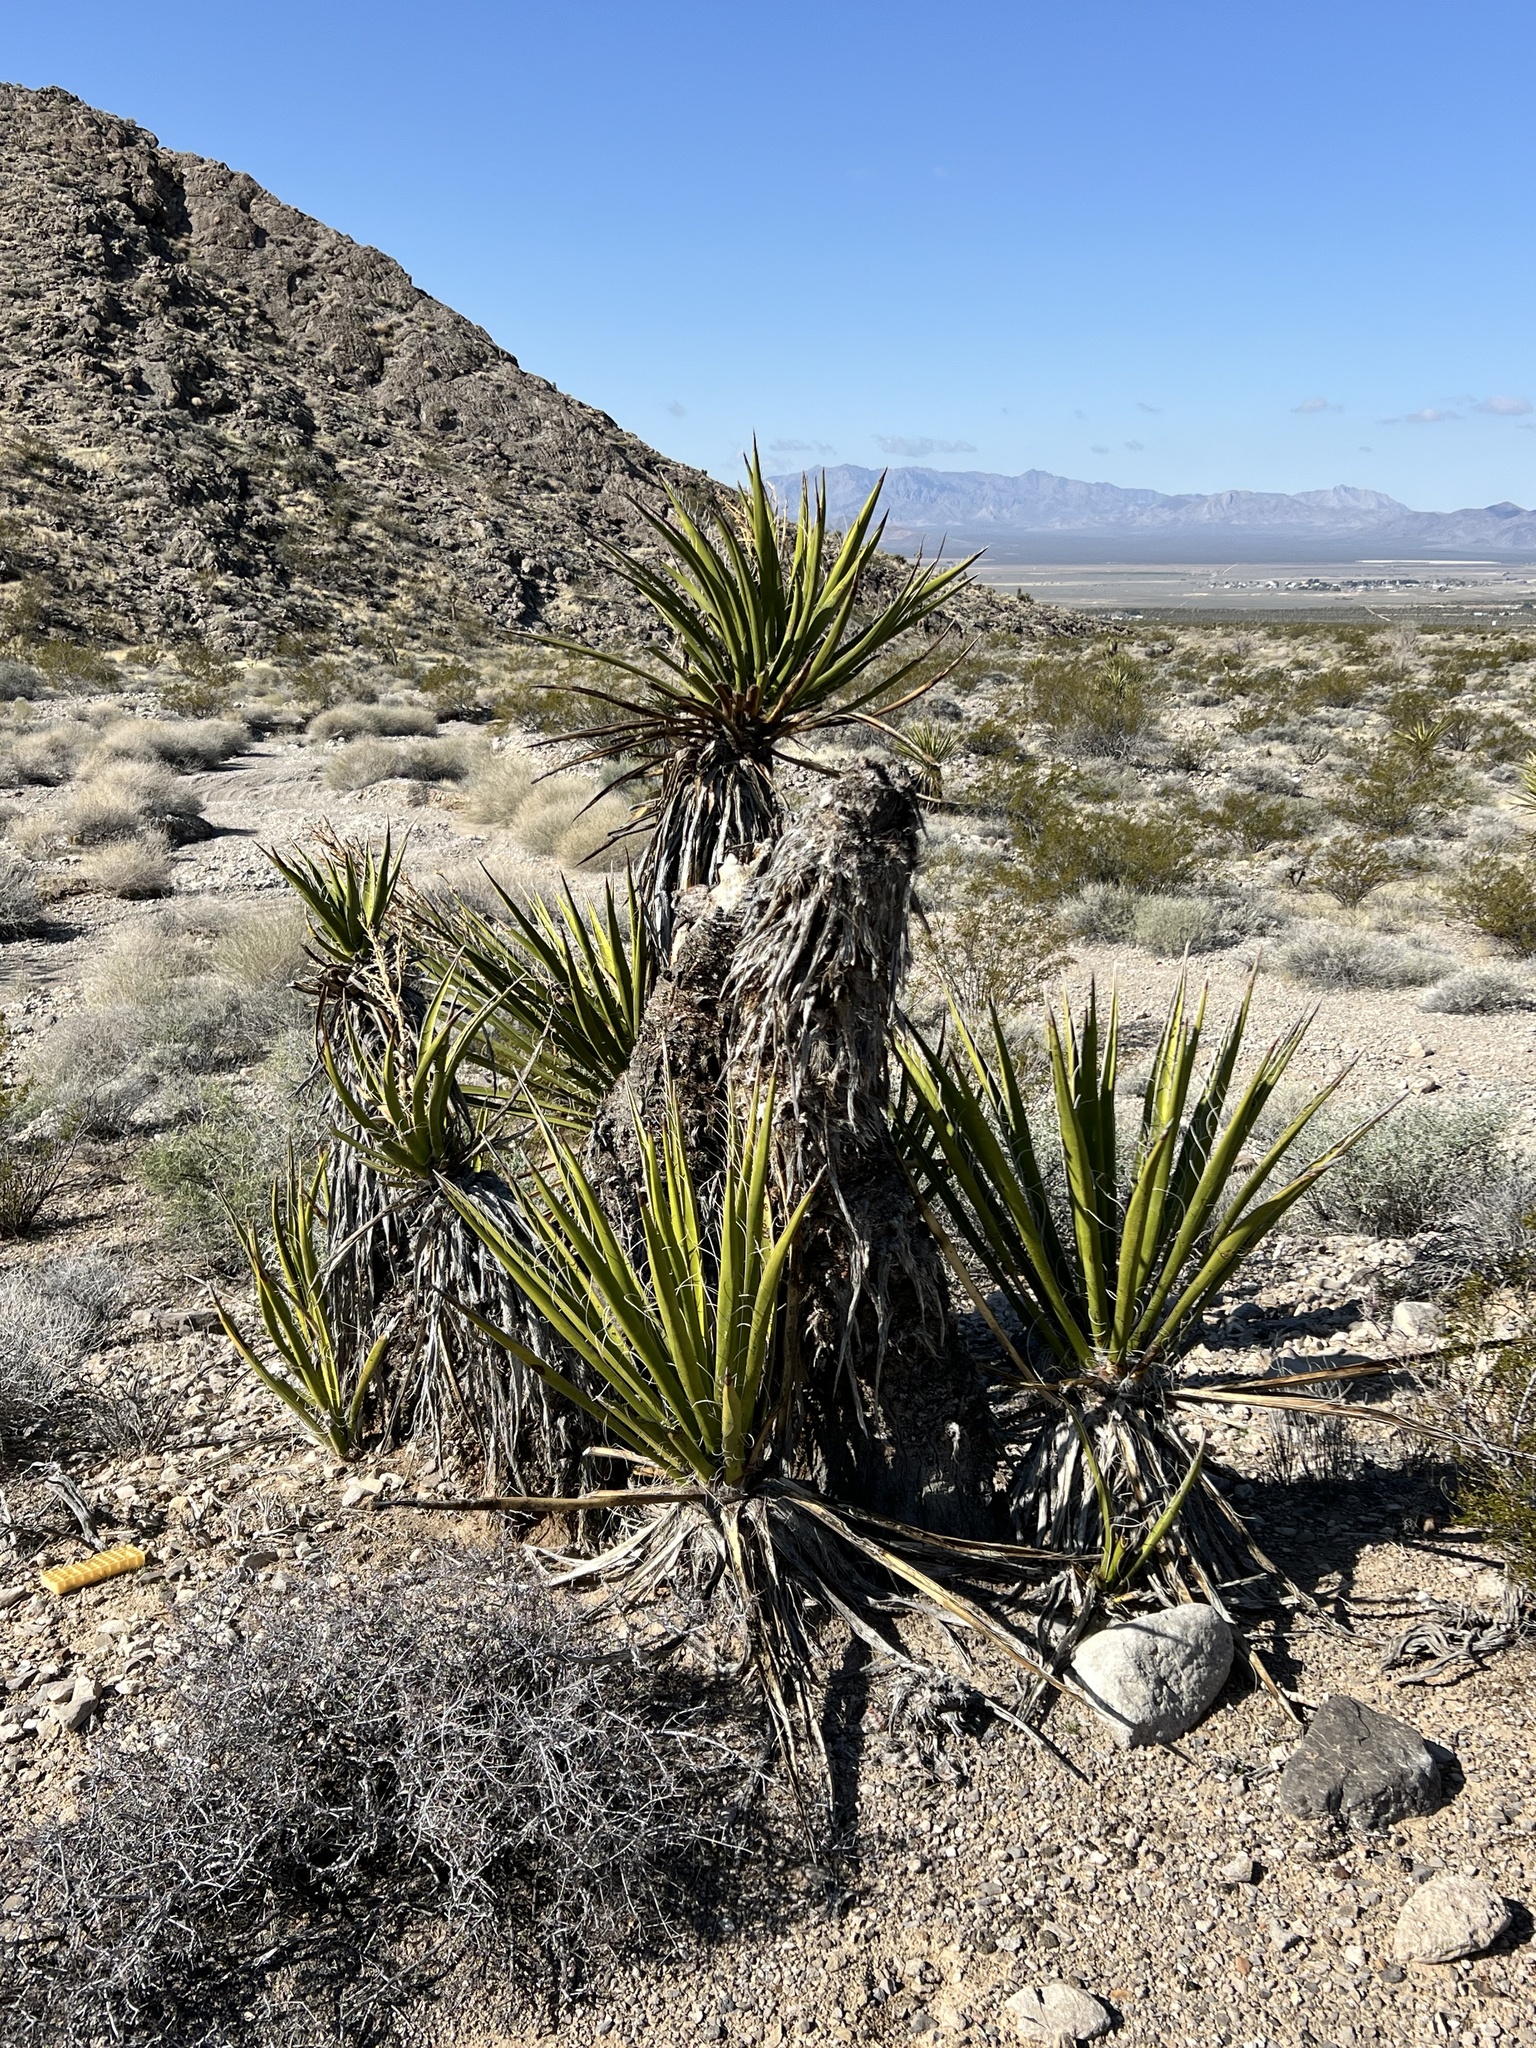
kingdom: Plantae
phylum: Tracheophyta
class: Liliopsida
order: Asparagales
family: Asparagaceae
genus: Yucca
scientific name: Yucca schidigera
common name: Mojave yucca
